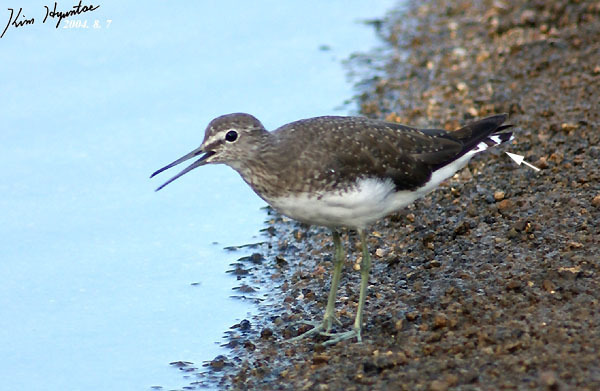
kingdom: Animalia
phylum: Chordata
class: Aves
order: Charadriiformes
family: Scolopacidae
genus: Tringa
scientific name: Tringa ochropus
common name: Green sandpiper
